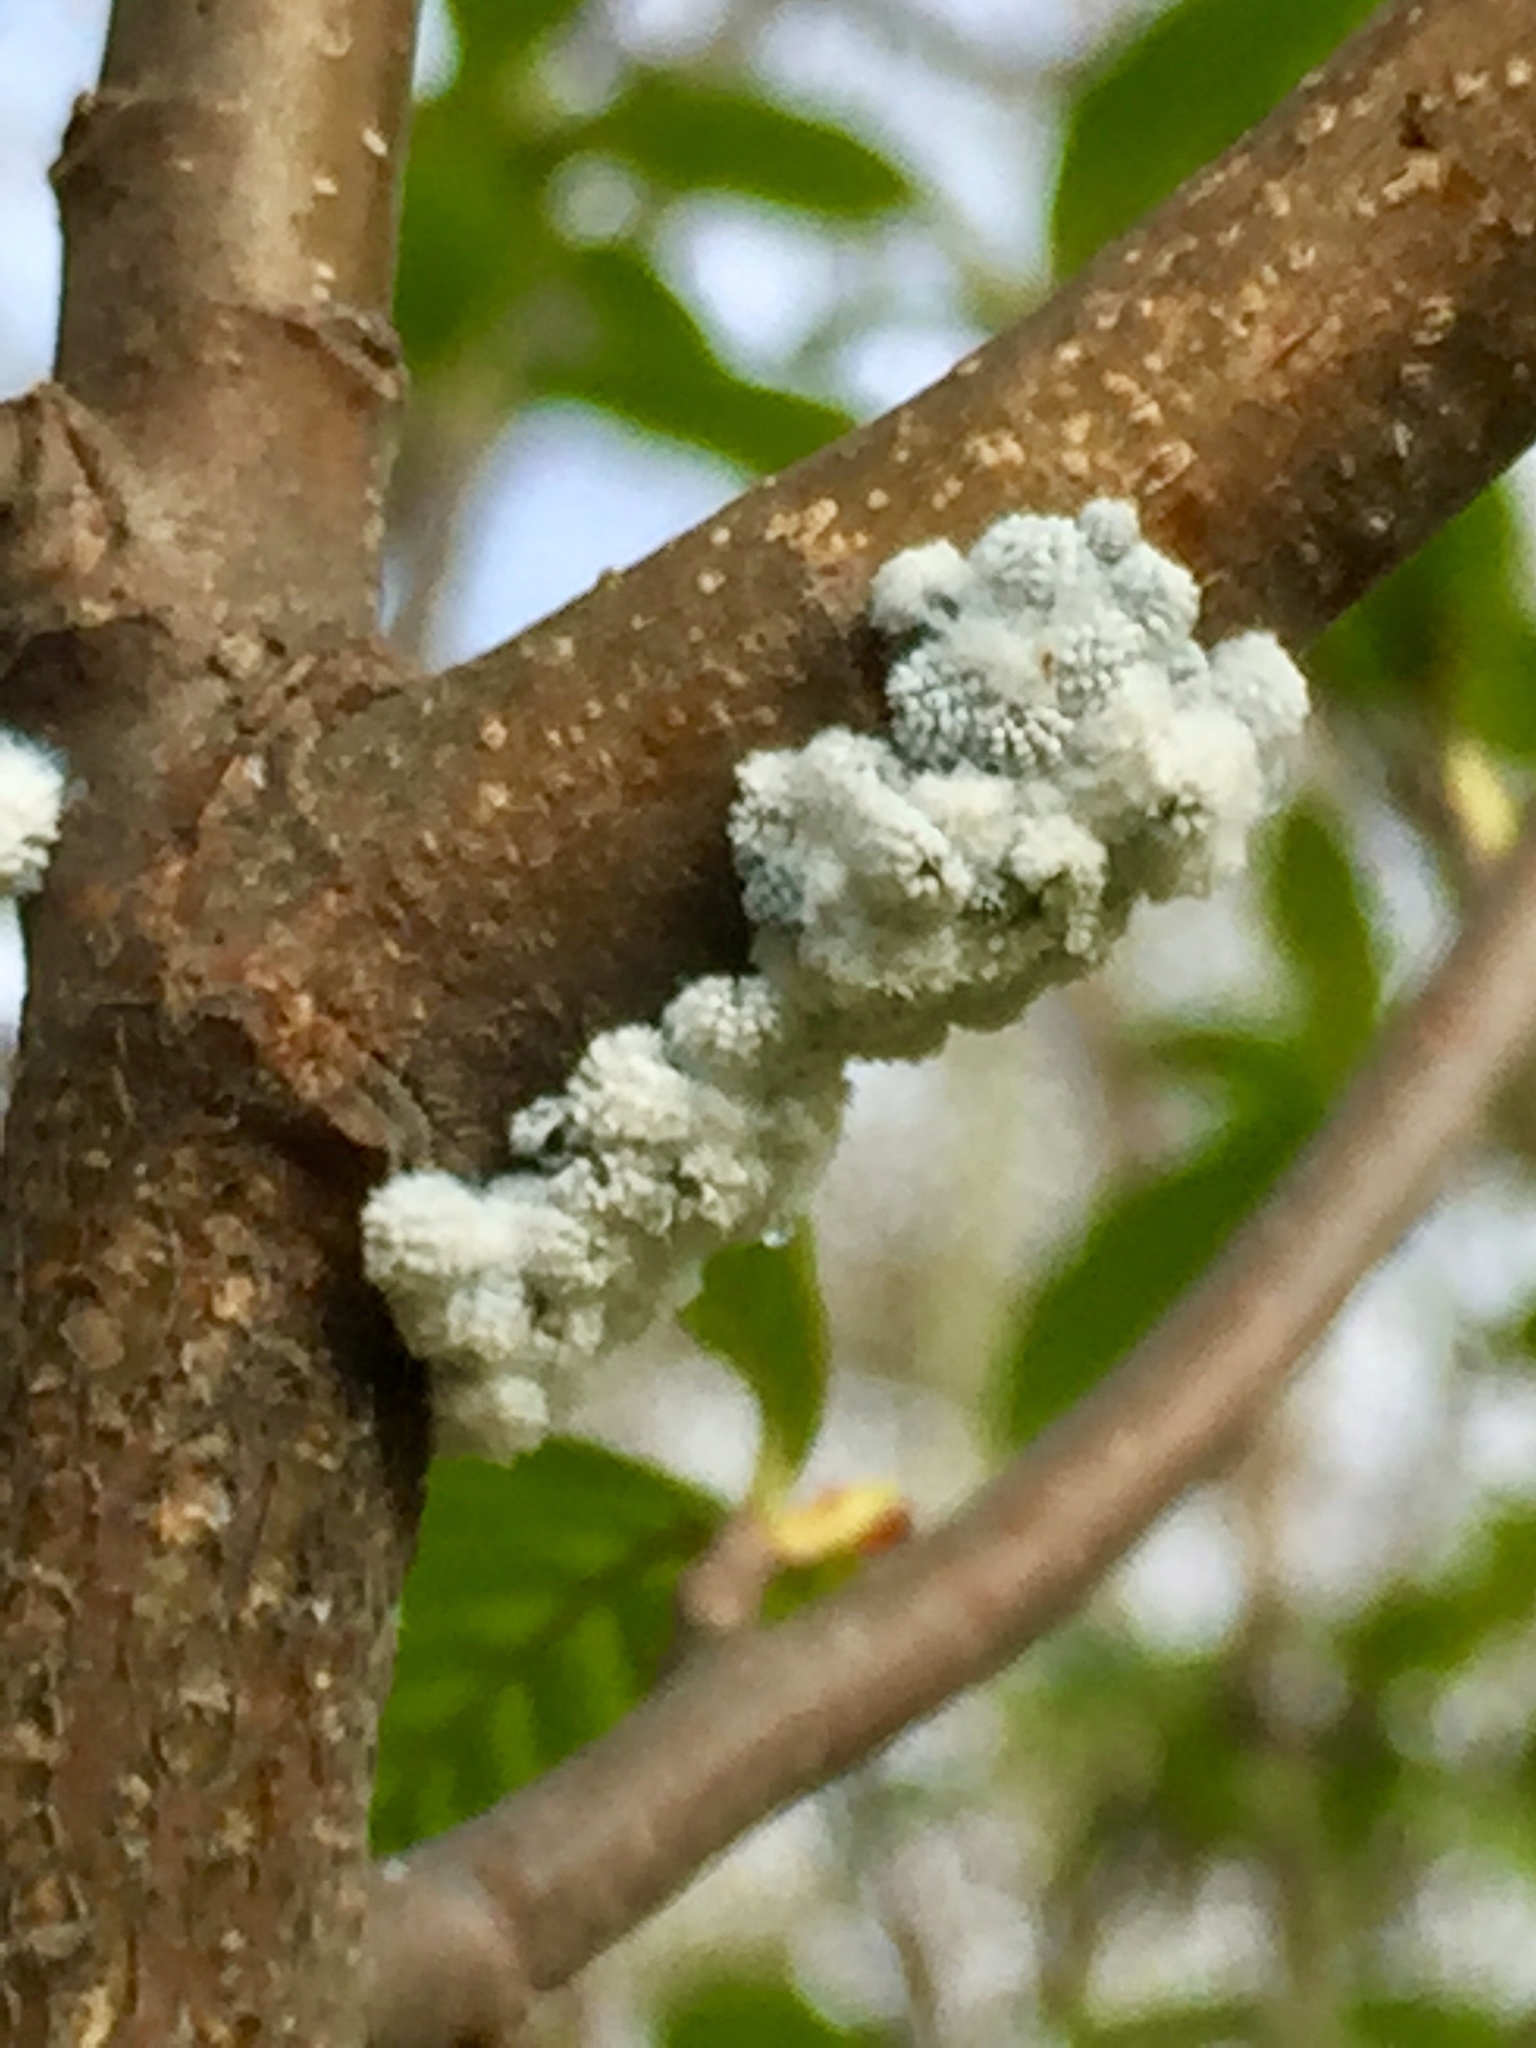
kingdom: Animalia
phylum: Arthropoda
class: Insecta
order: Hemiptera
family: Aphididae
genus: Prociphilus
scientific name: Prociphilus tessellatus
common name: Woolly alder aphid
